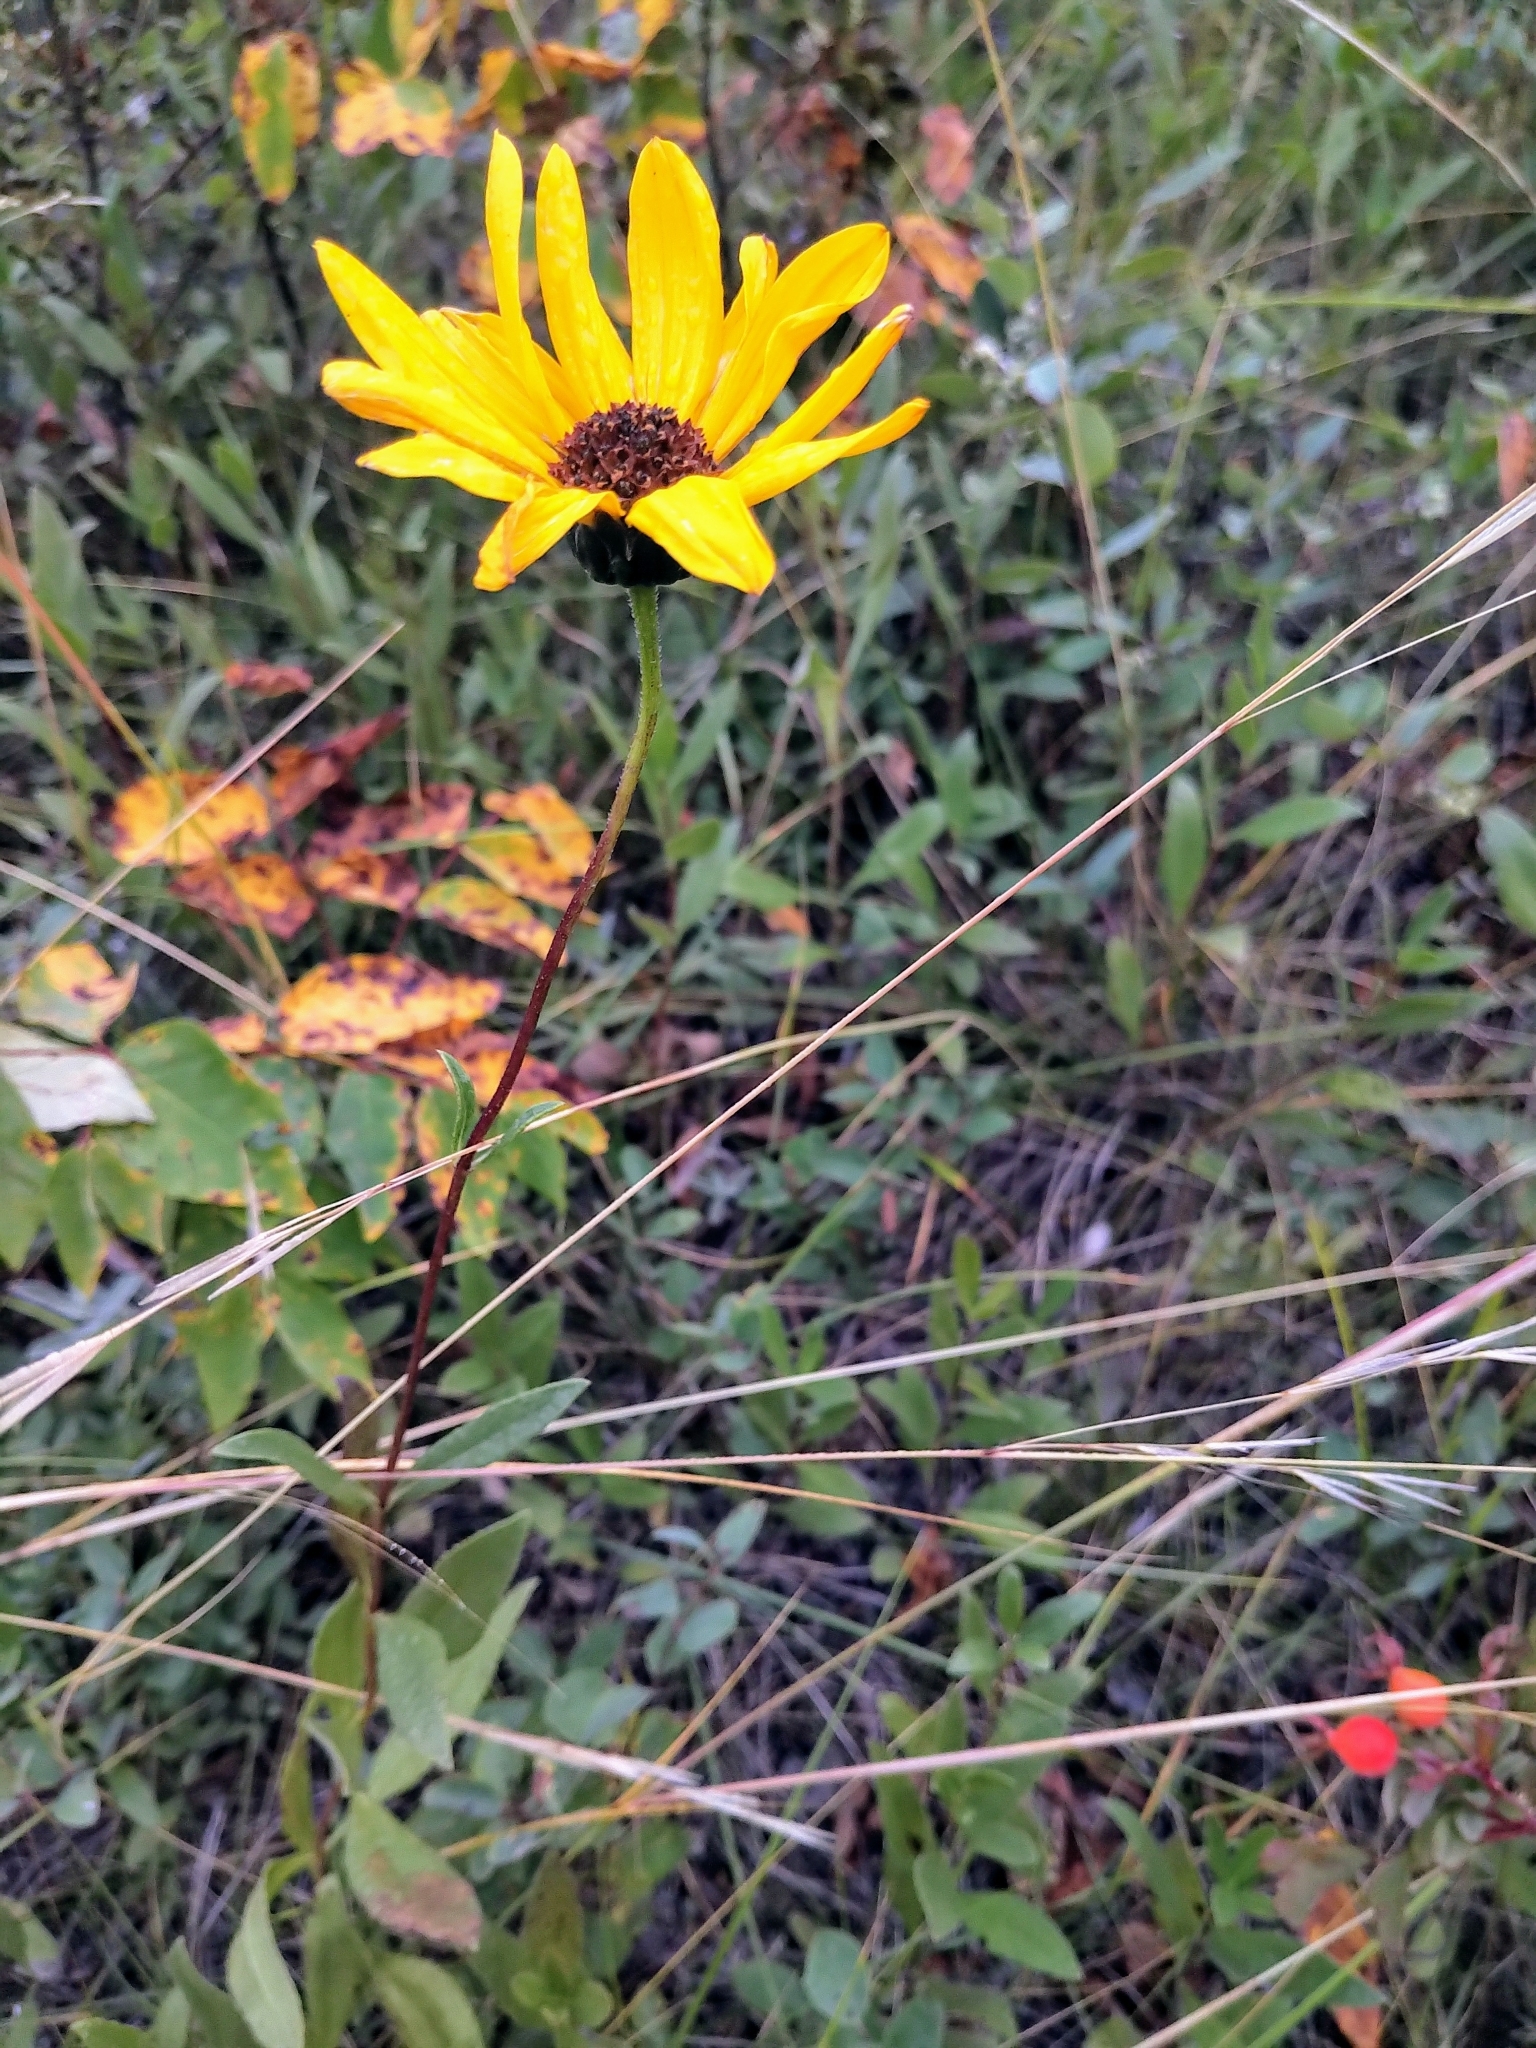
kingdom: Plantae
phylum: Tracheophyta
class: Magnoliopsida
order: Asterales
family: Asteraceae
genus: Helianthus
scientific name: Helianthus pauciflorus
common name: Stiff sunflower
